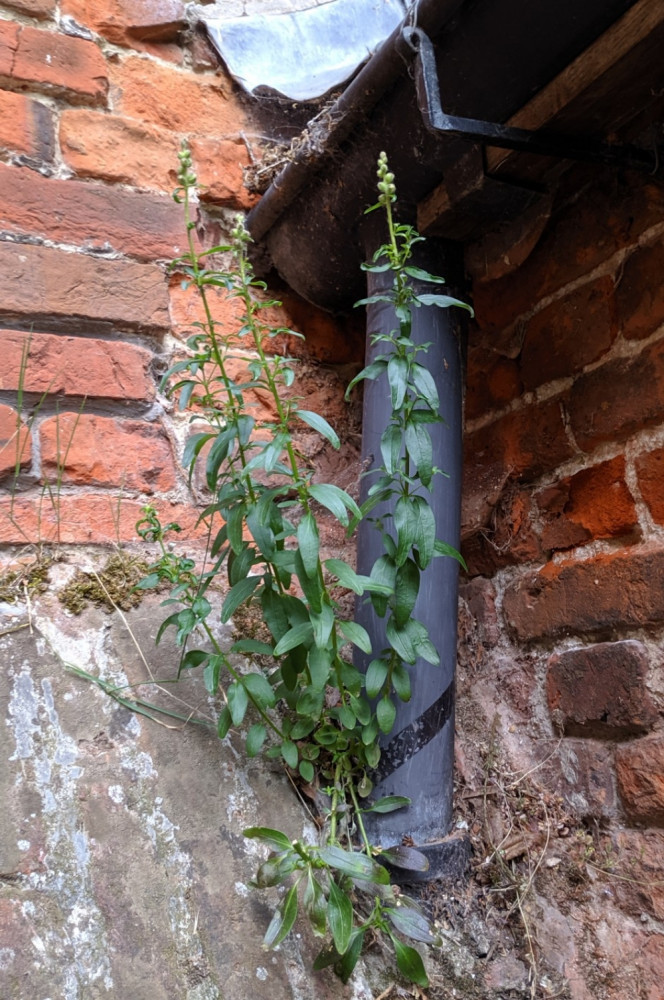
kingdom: Plantae
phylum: Tracheophyta
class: Magnoliopsida
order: Lamiales
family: Plantaginaceae
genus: Antirrhinum
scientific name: Antirrhinum majus
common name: Snapdragon
